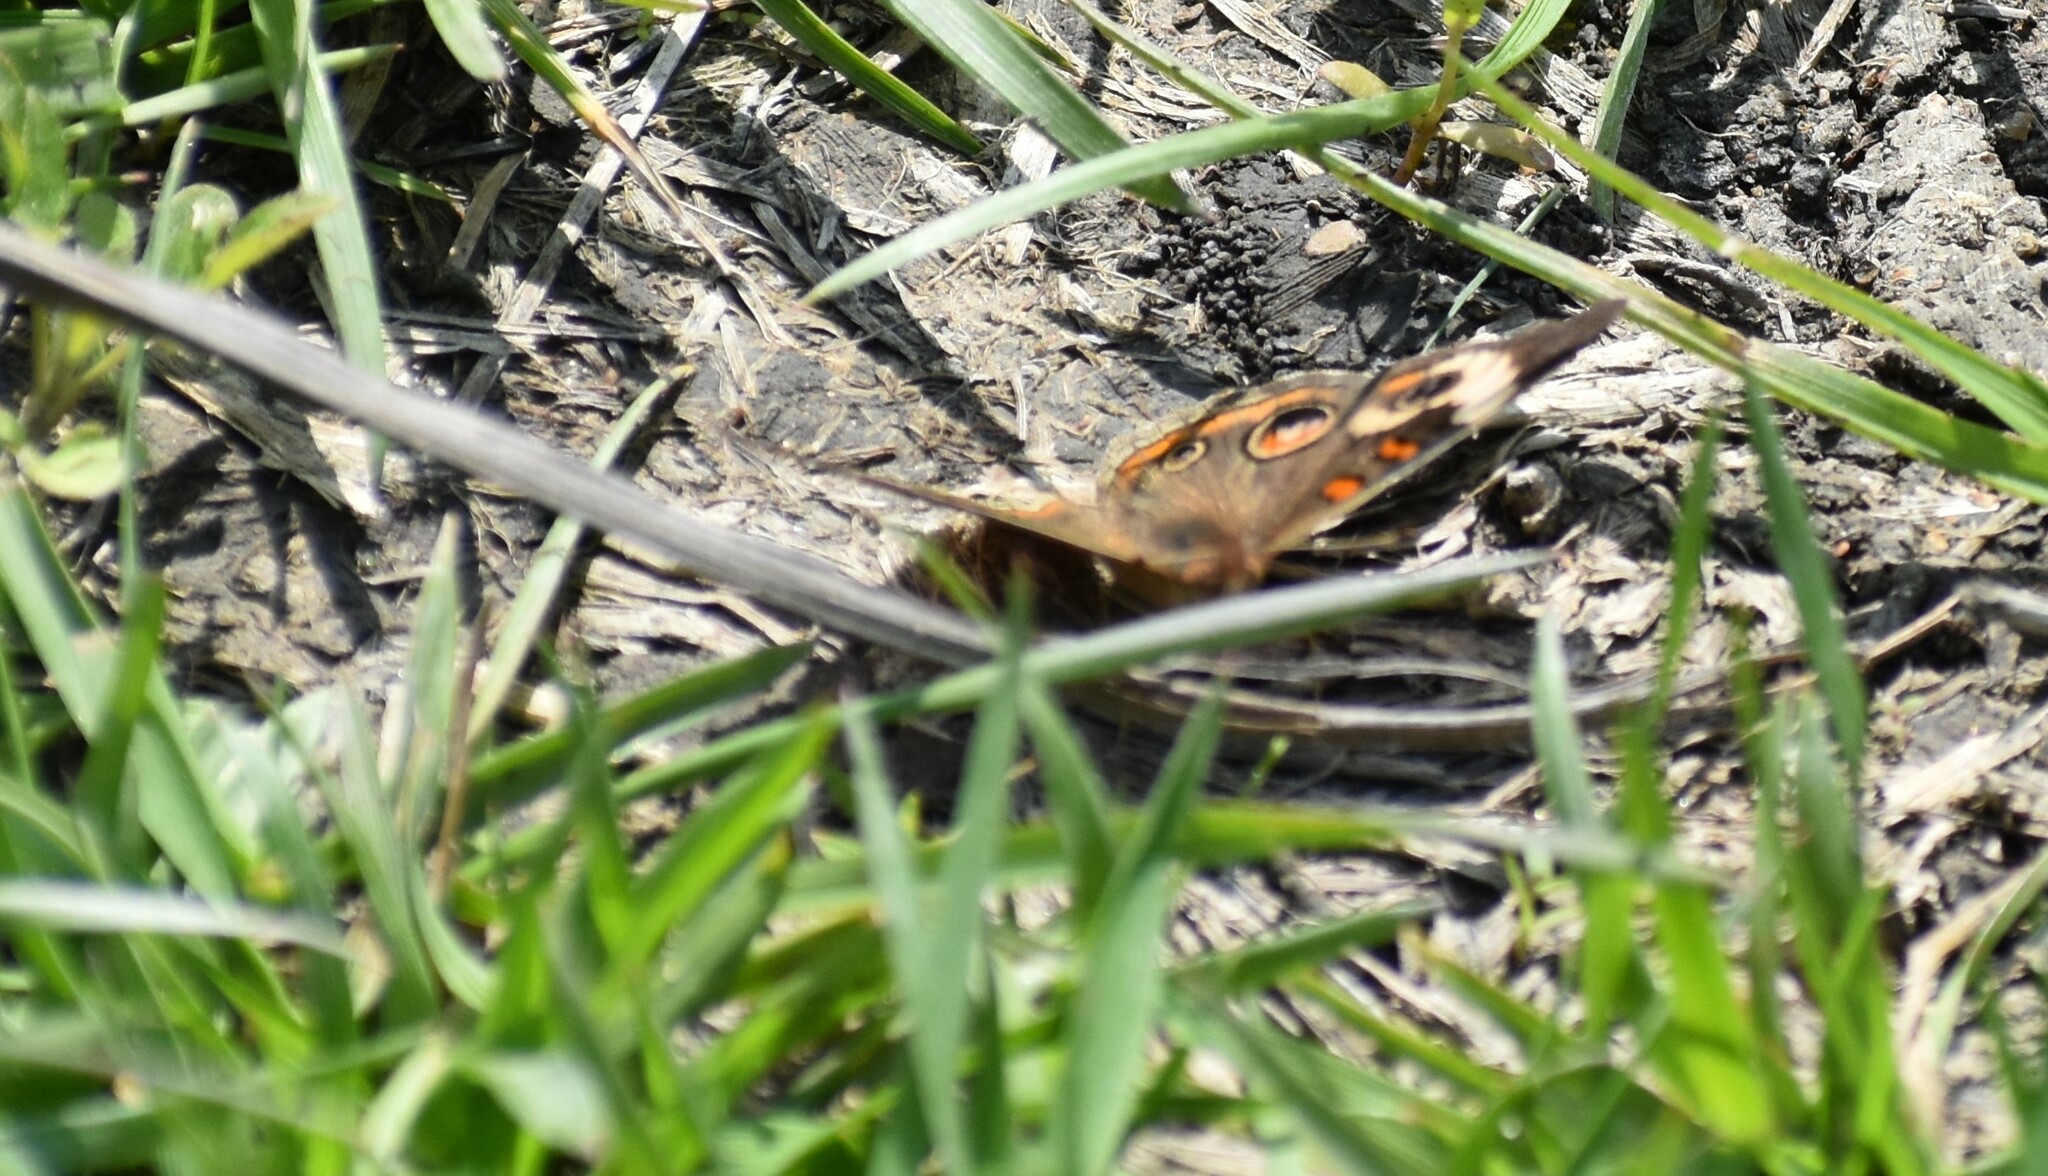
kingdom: Animalia
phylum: Arthropoda
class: Insecta
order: Lepidoptera
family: Nymphalidae
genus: Junonia
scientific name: Junonia coenia
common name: Common buckeye
